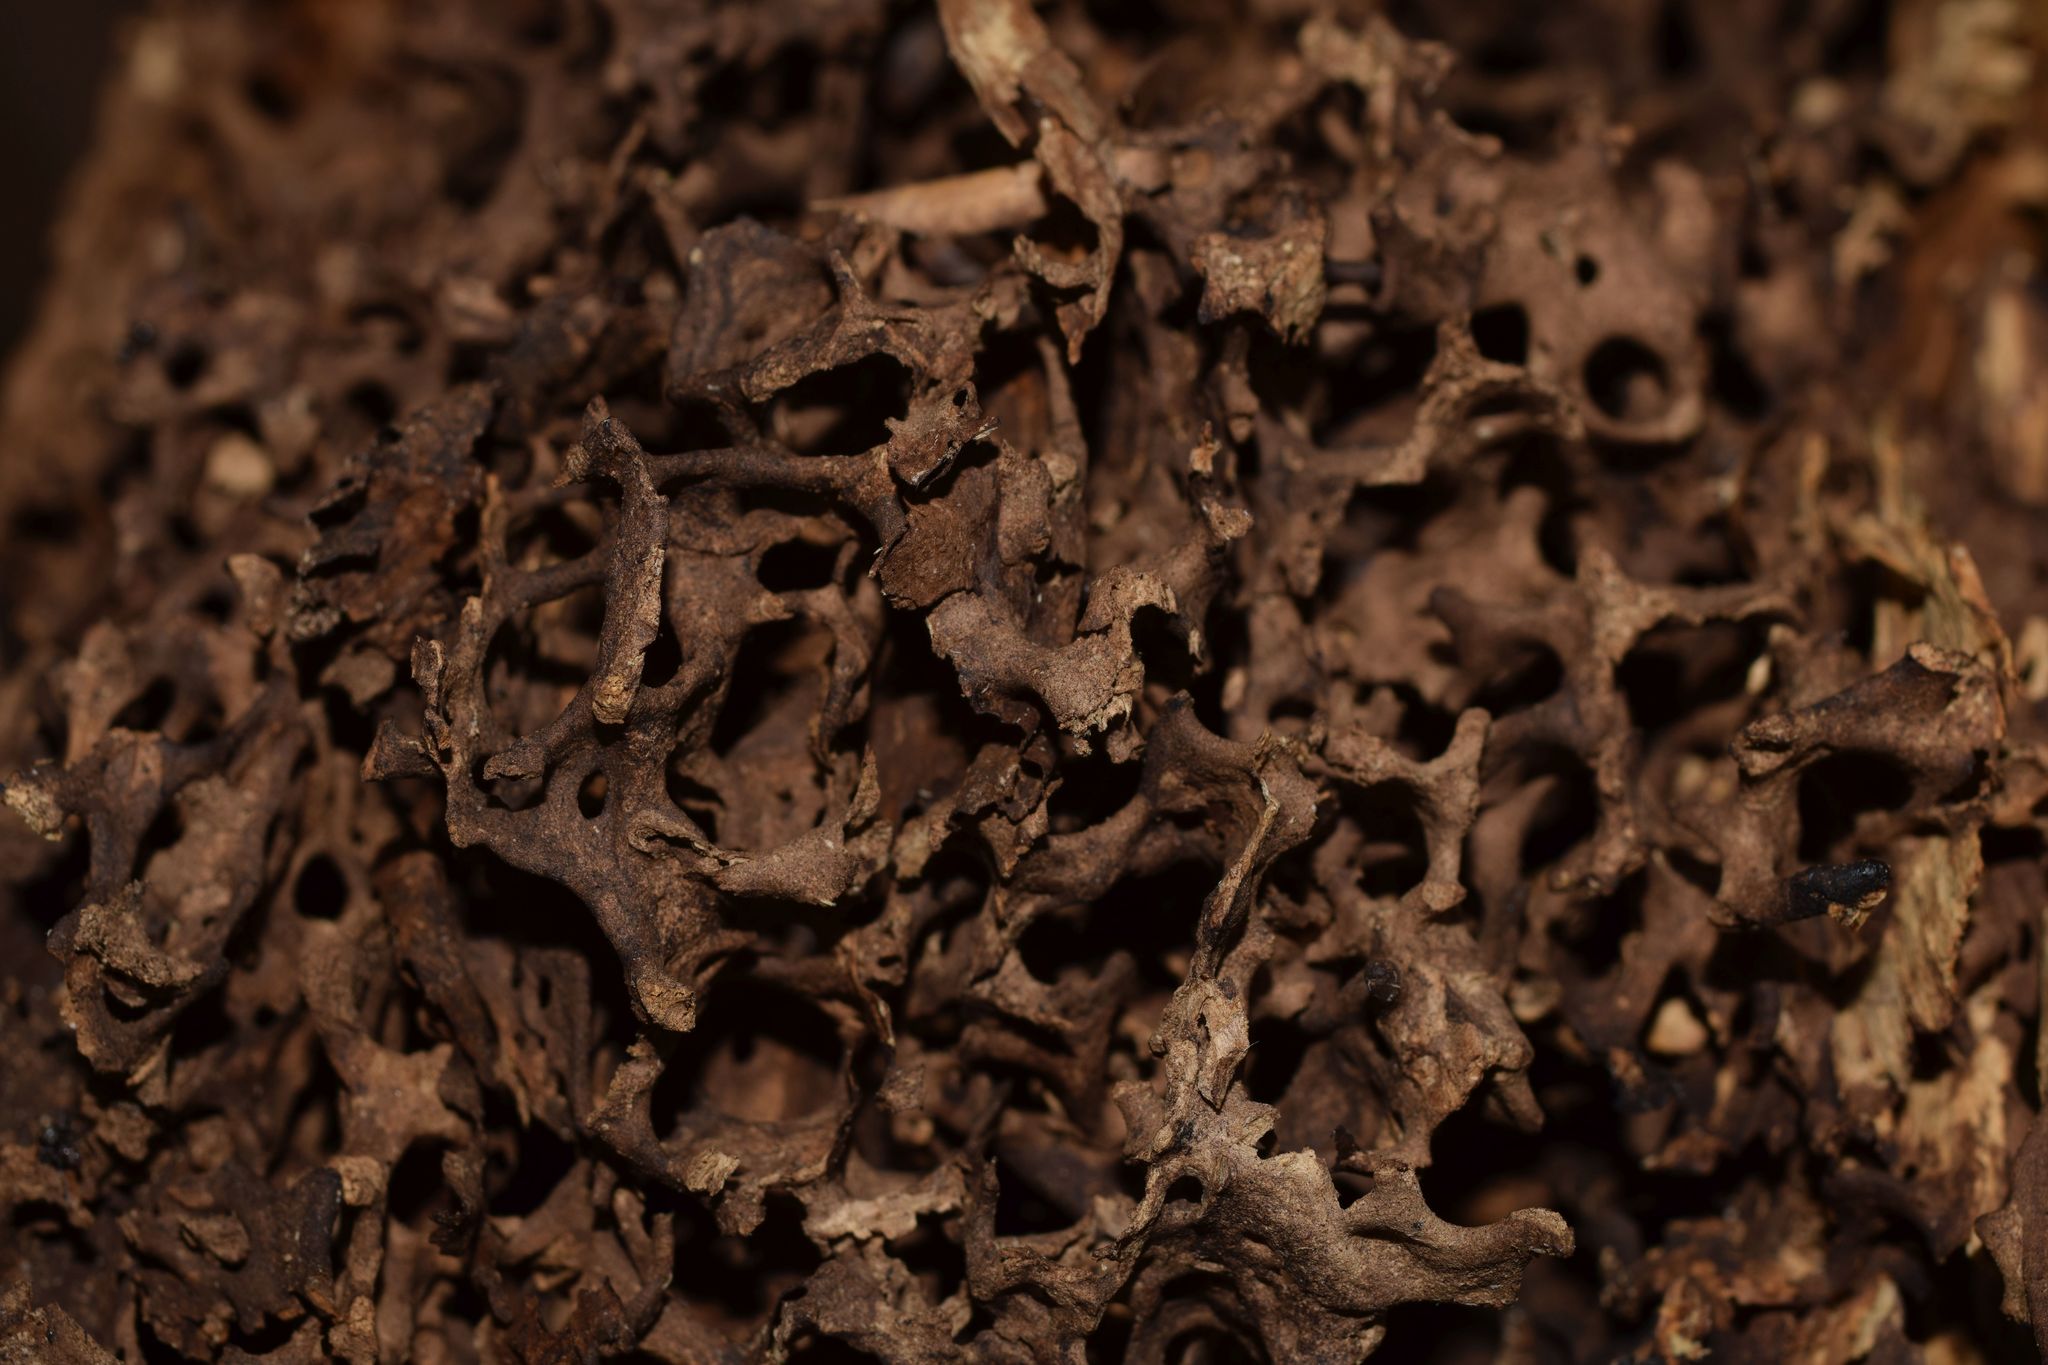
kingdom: Animalia
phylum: Arthropoda
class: Insecta
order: Hymenoptera
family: Formicidae
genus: Liometopum
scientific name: Liometopum microcephalum
